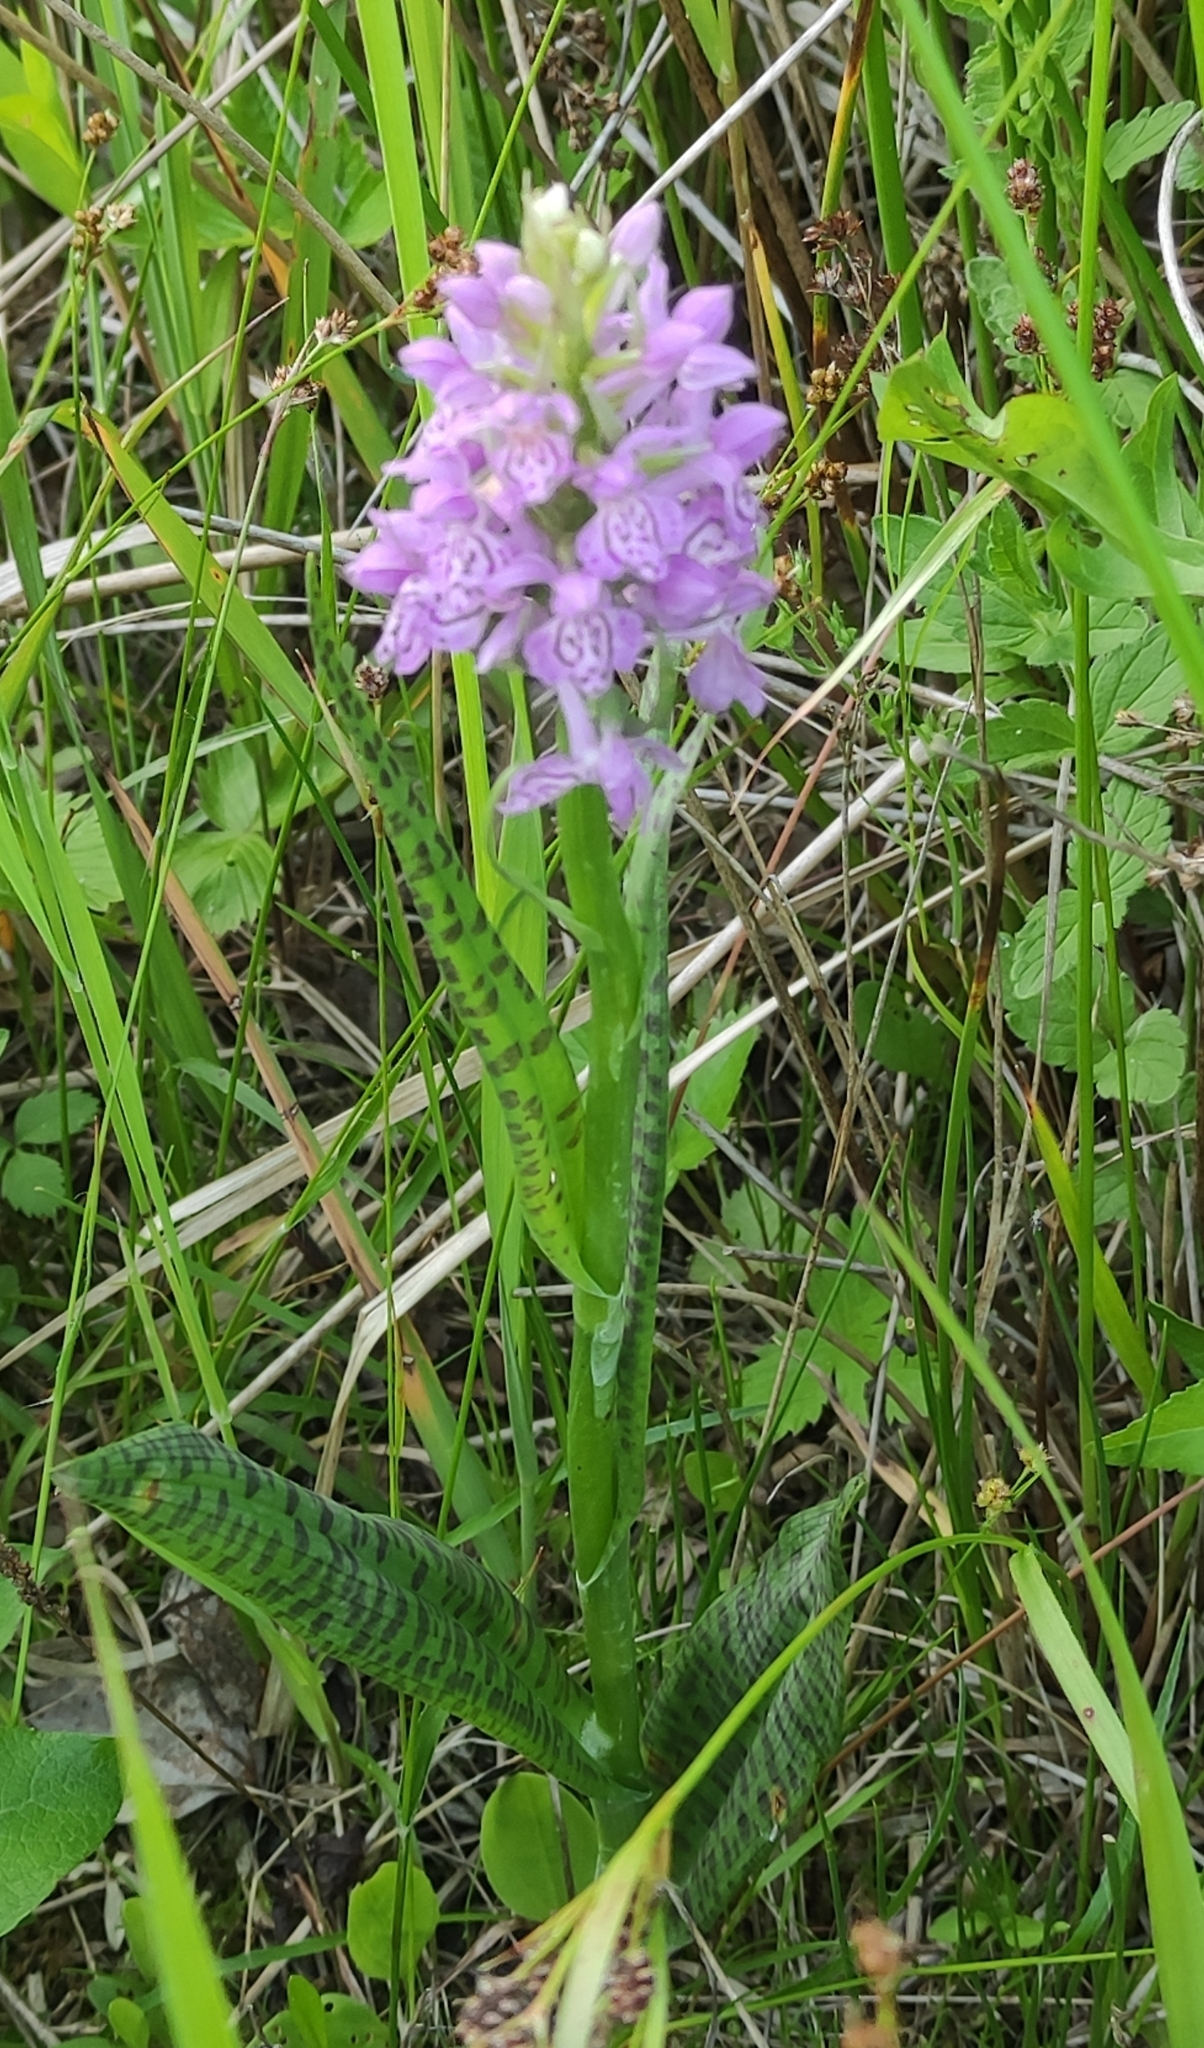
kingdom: Plantae
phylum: Tracheophyta
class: Liliopsida
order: Asparagales
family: Orchidaceae
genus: Dactylorhiza
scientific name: Dactylorhiza majalis
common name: Marsh orchid
